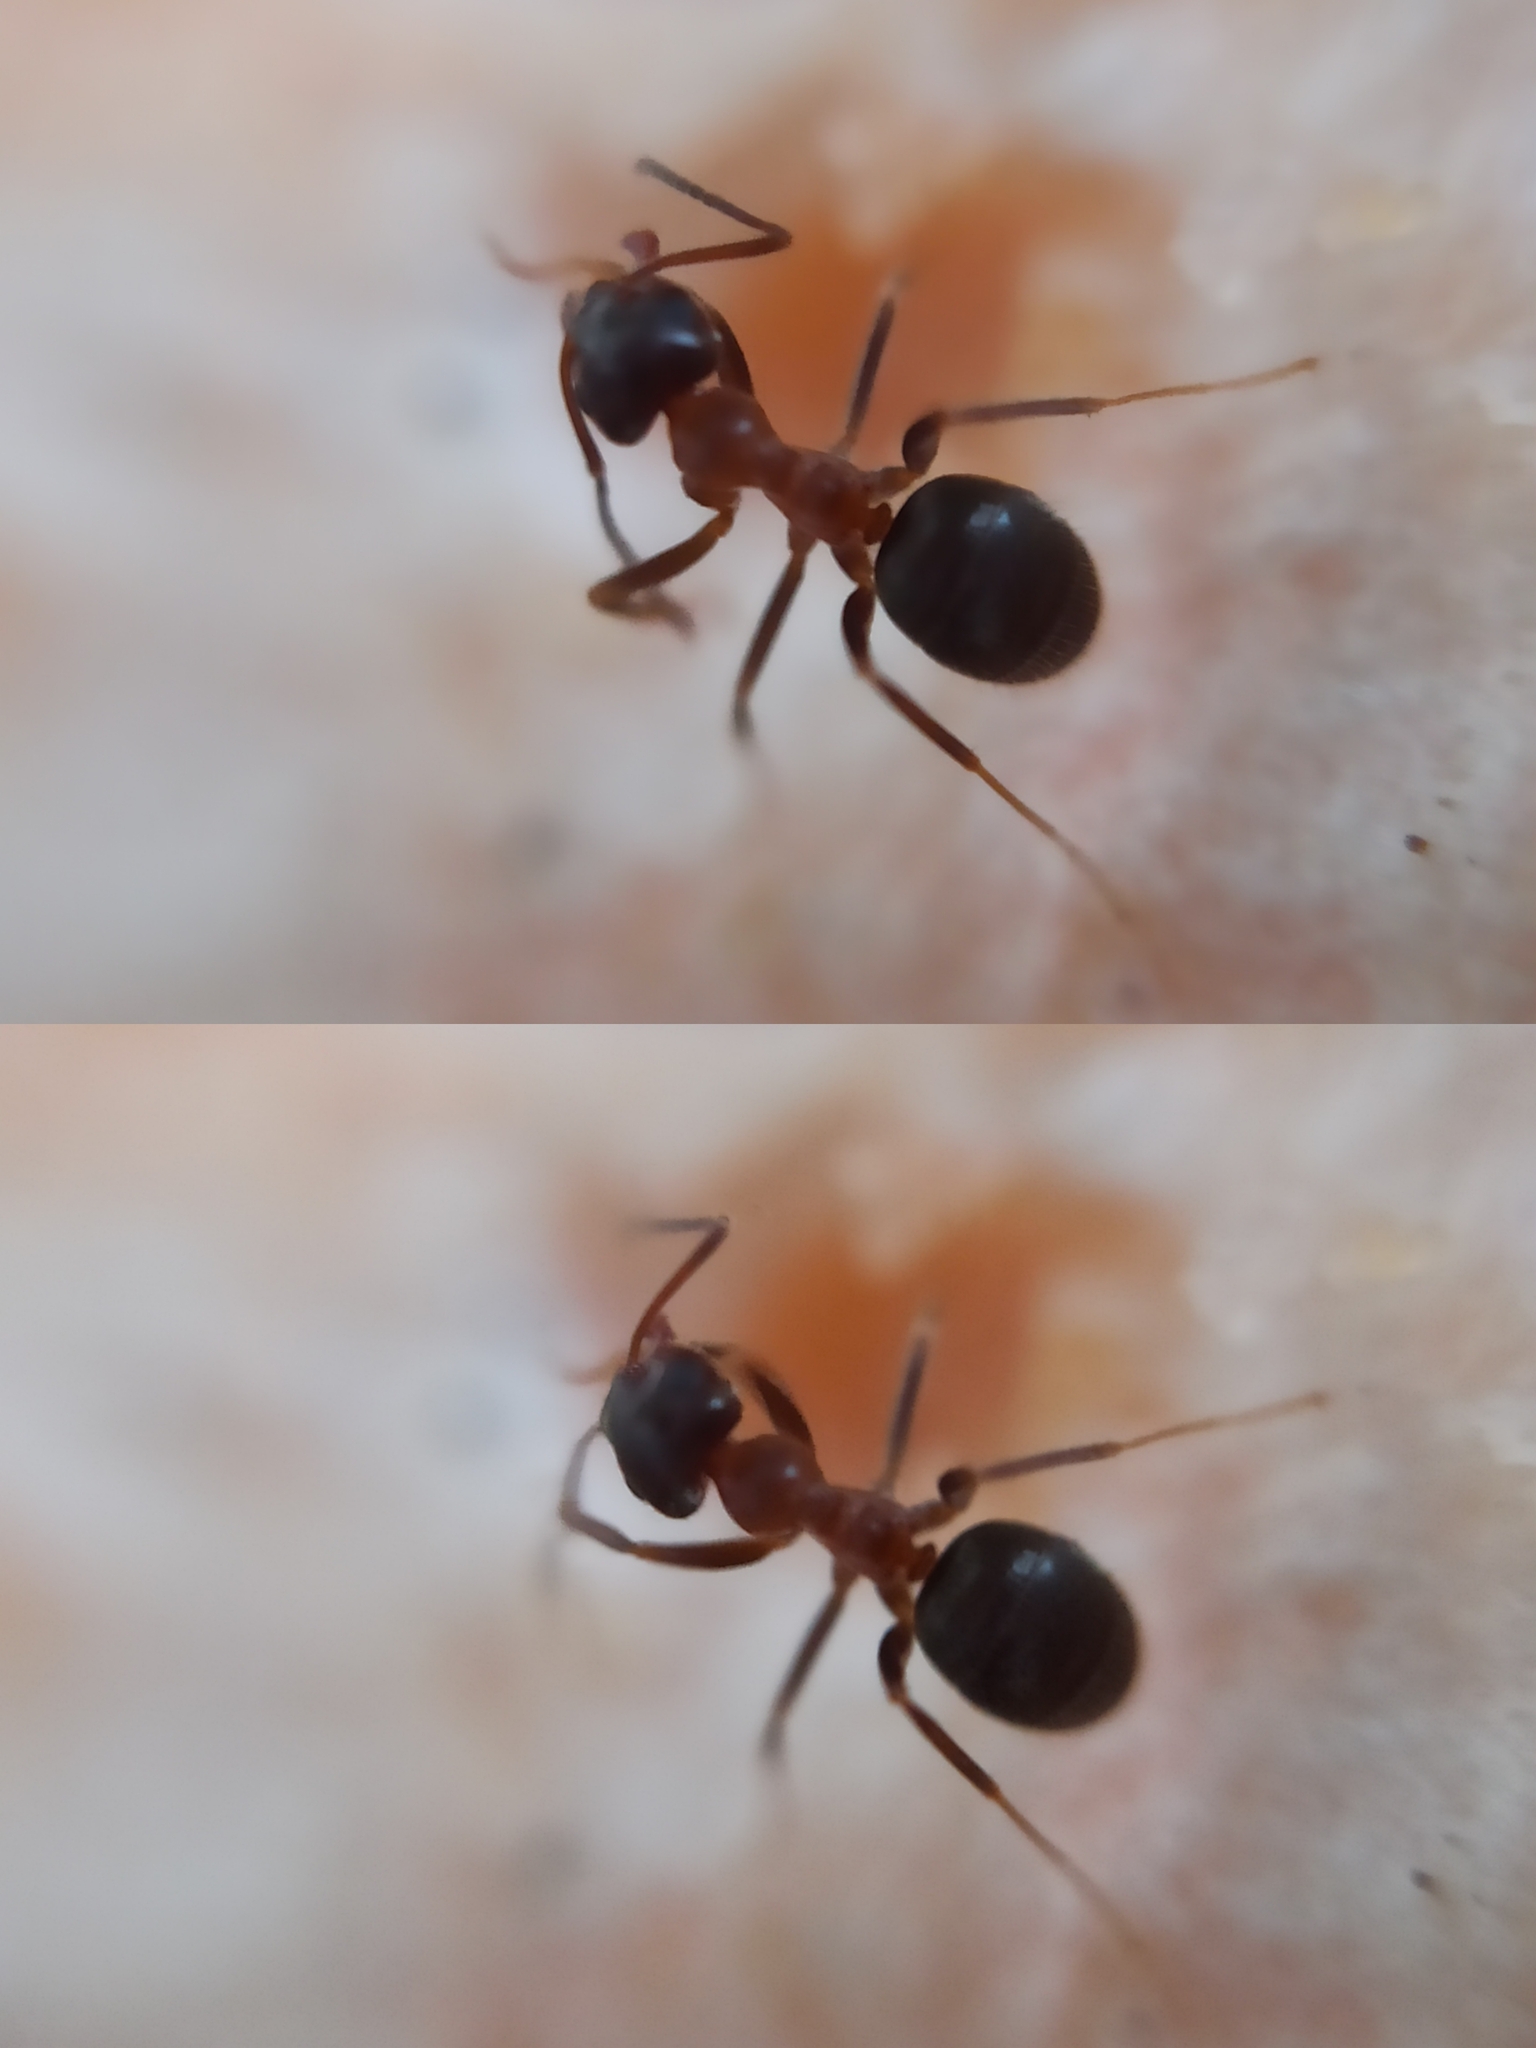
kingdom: Animalia
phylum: Arthropoda
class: Insecta
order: Hymenoptera
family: Formicidae
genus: Lasius
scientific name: Lasius emarginatus
